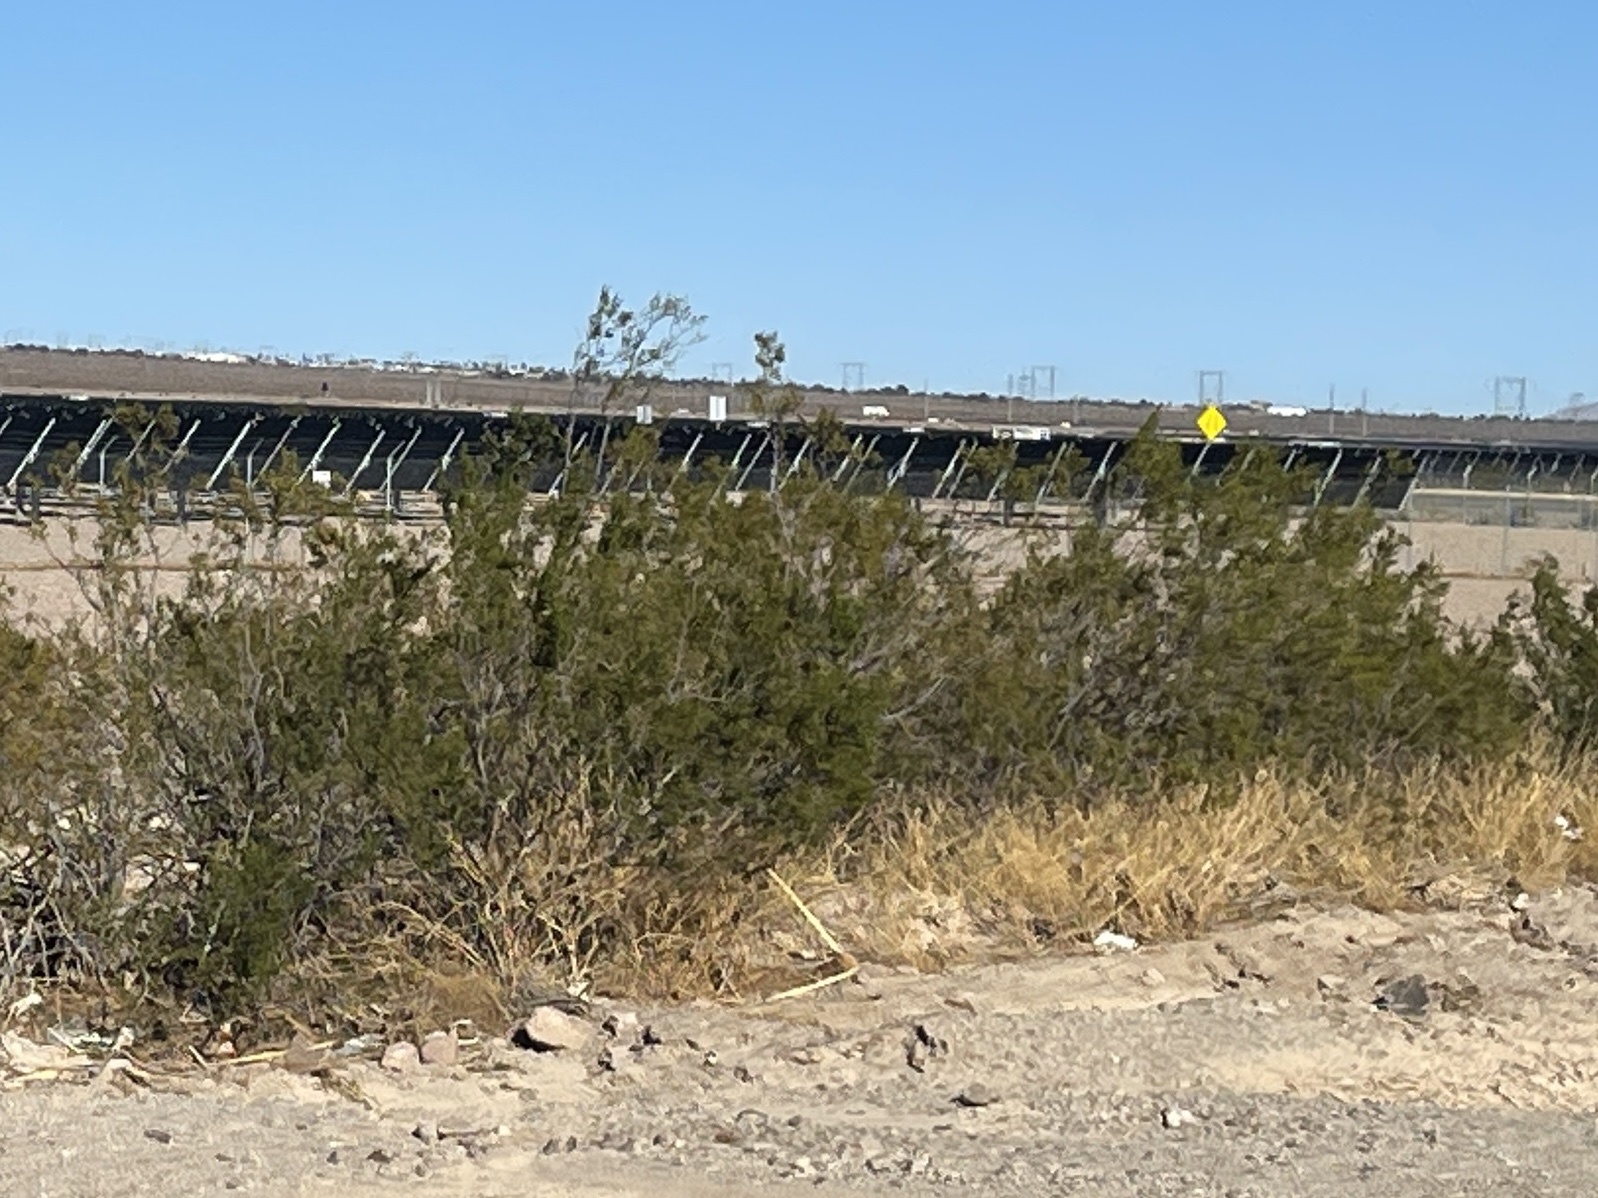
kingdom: Plantae
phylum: Tracheophyta
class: Magnoliopsida
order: Zygophyllales
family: Zygophyllaceae
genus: Larrea
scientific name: Larrea tridentata
